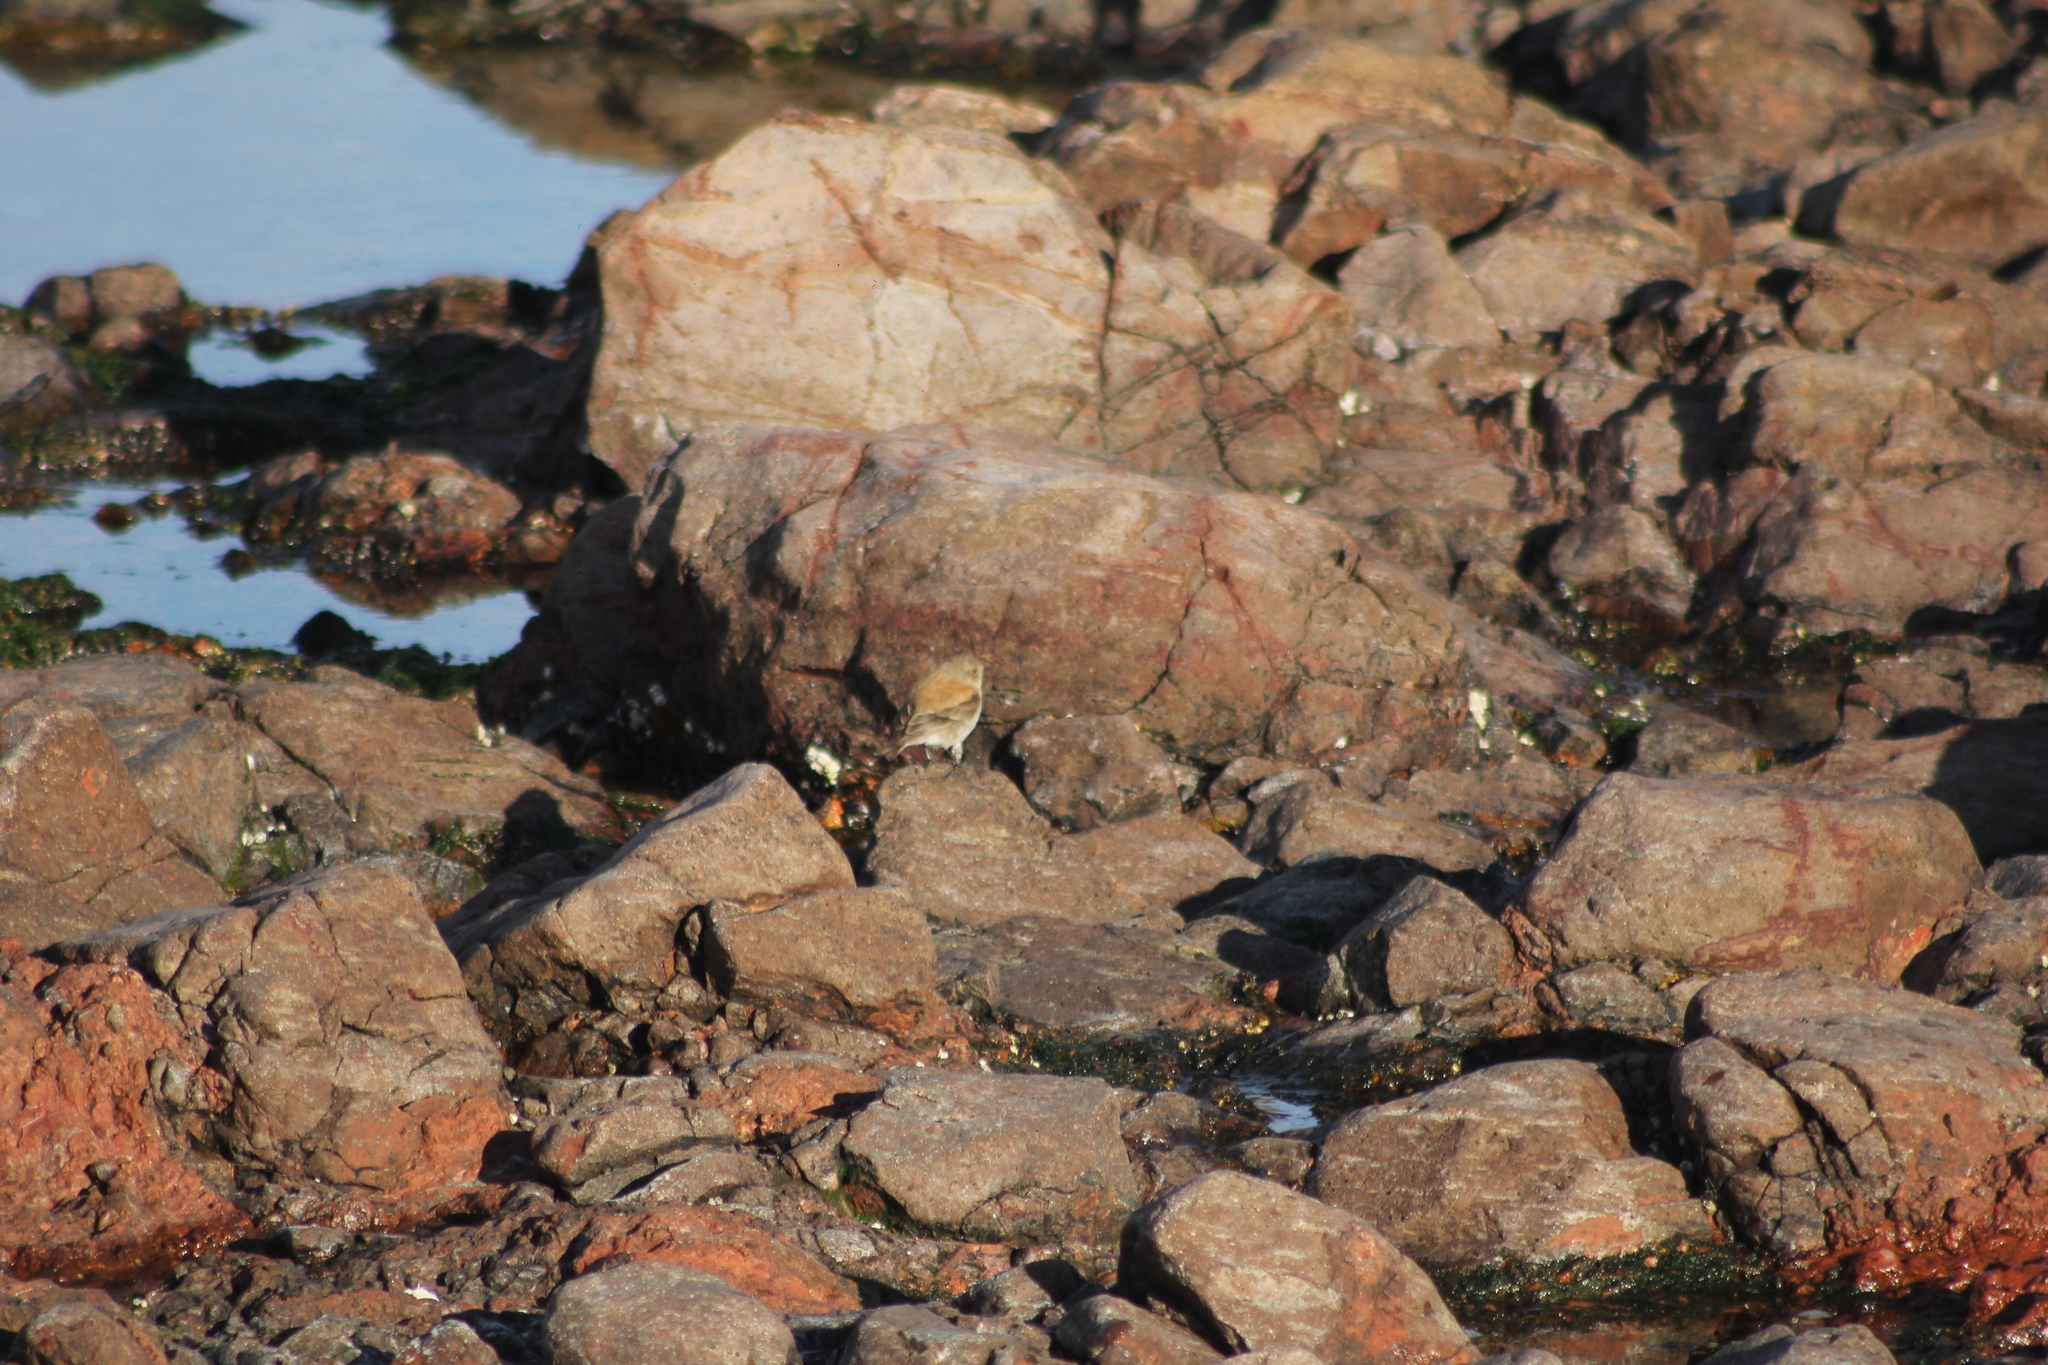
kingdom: Animalia
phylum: Chordata
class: Aves
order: Passeriformes
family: Tyrannidae
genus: Lessonia
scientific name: Lessonia rufa
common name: Austral negrito
